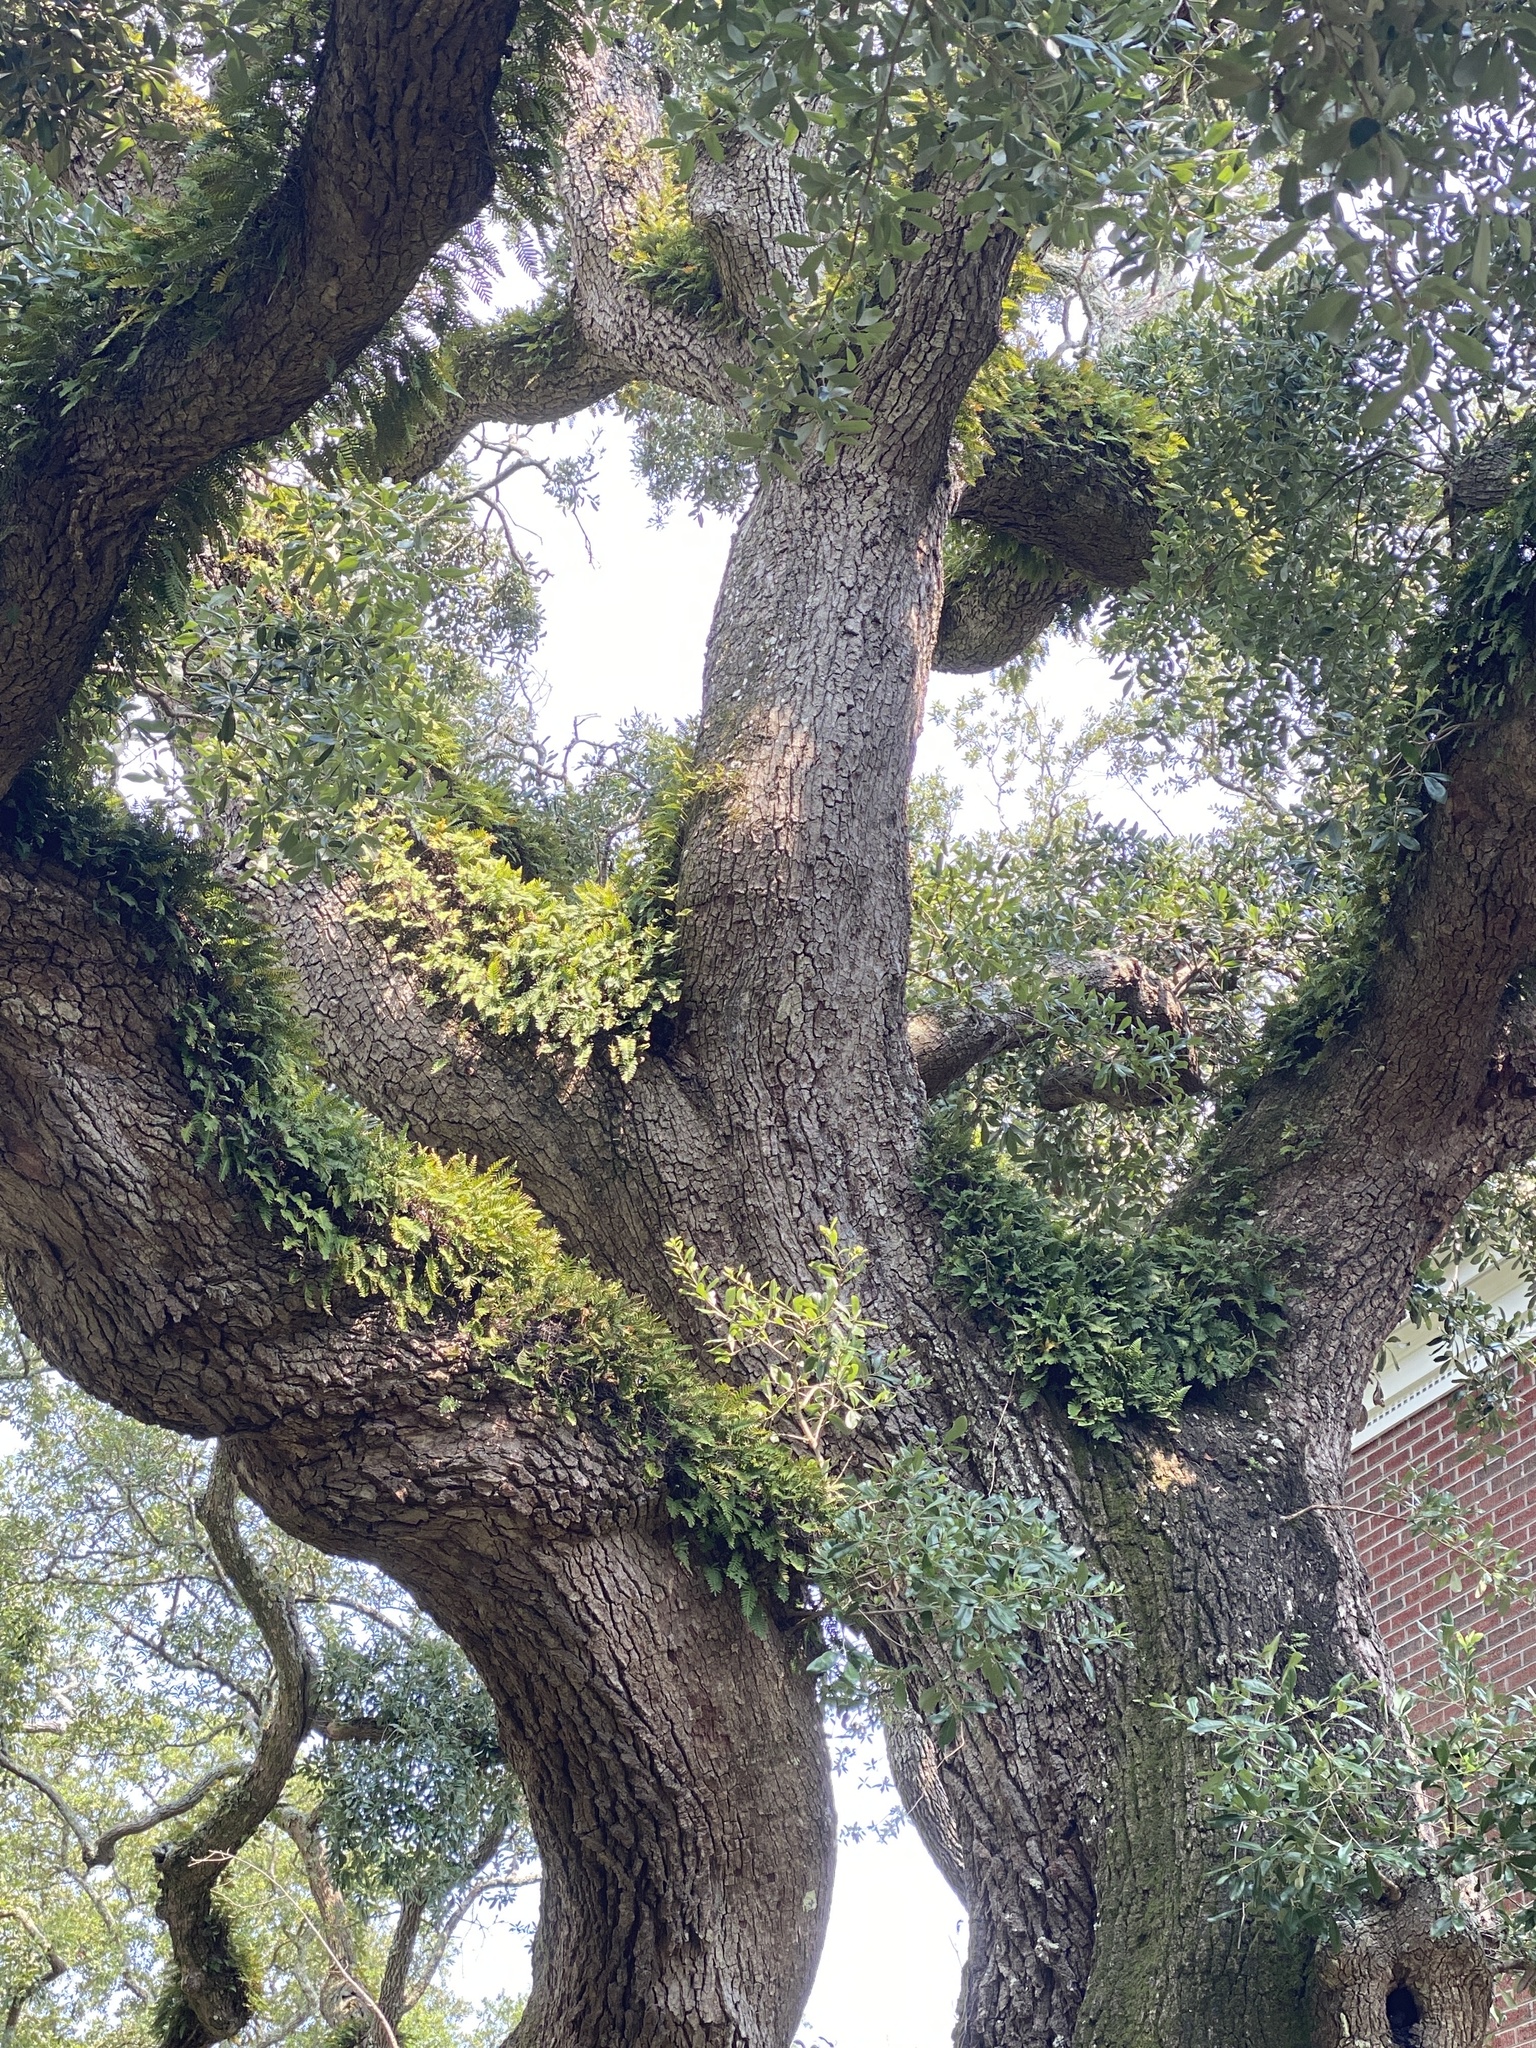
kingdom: Plantae
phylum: Tracheophyta
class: Magnoliopsida
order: Fagales
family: Fagaceae
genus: Quercus
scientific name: Quercus virginiana
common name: Southern live oak
